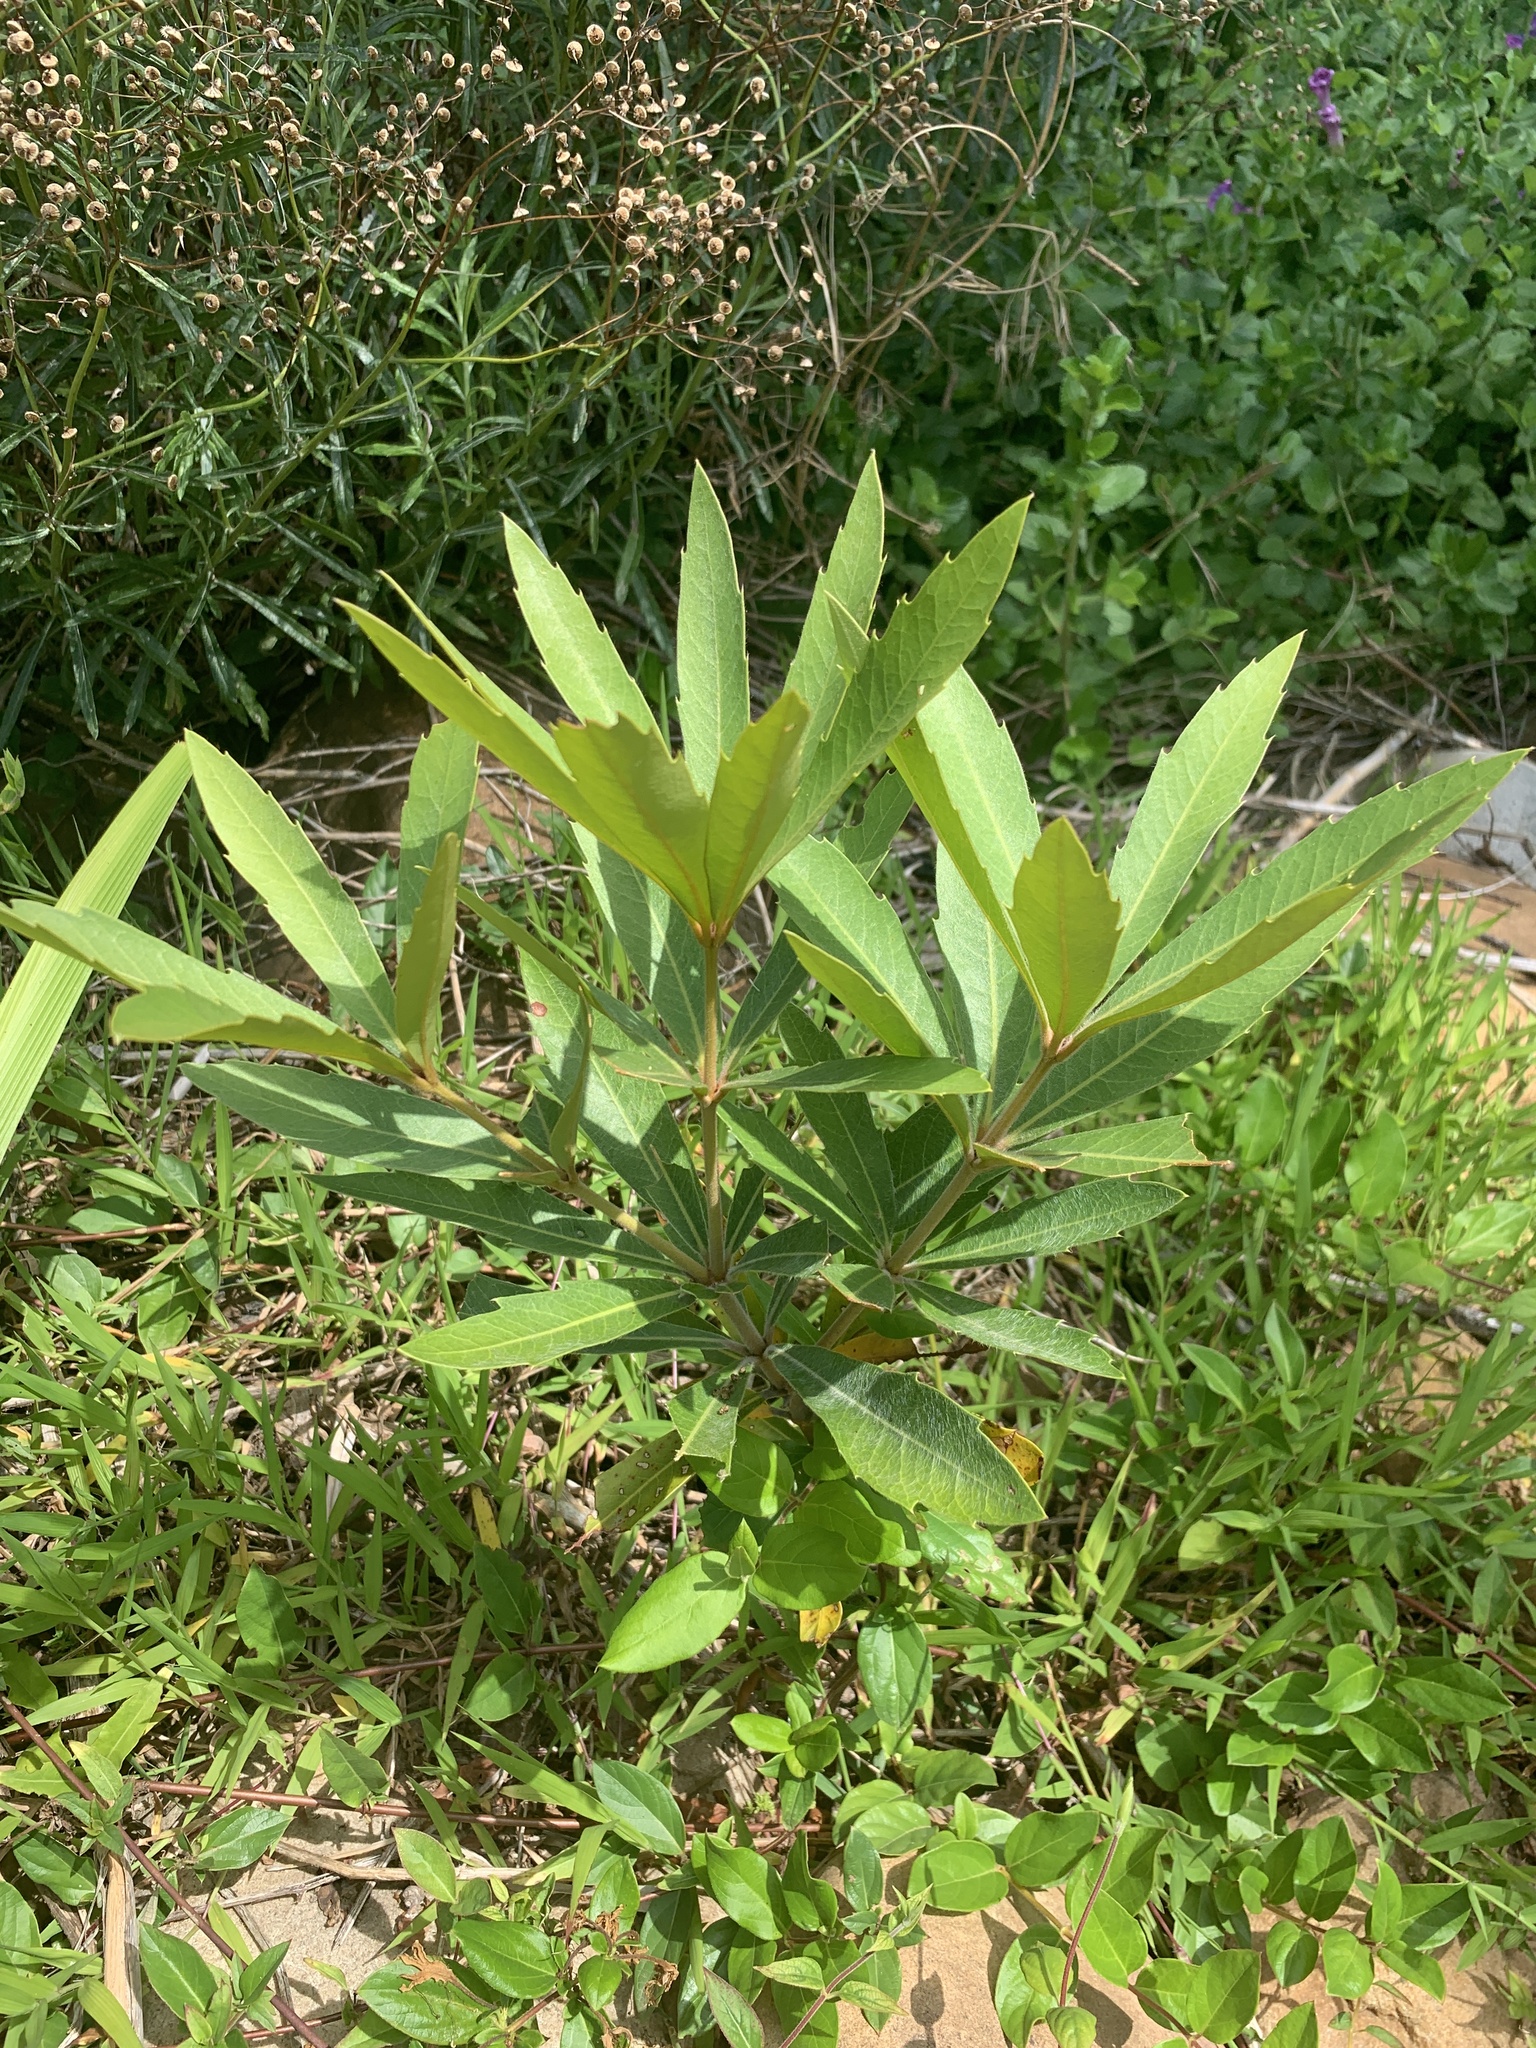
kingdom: Plantae
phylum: Tracheophyta
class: Magnoliopsida
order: Proteales
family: Proteaceae
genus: Brabejum
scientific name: Brabejum stellatifolium
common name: Wild almond
